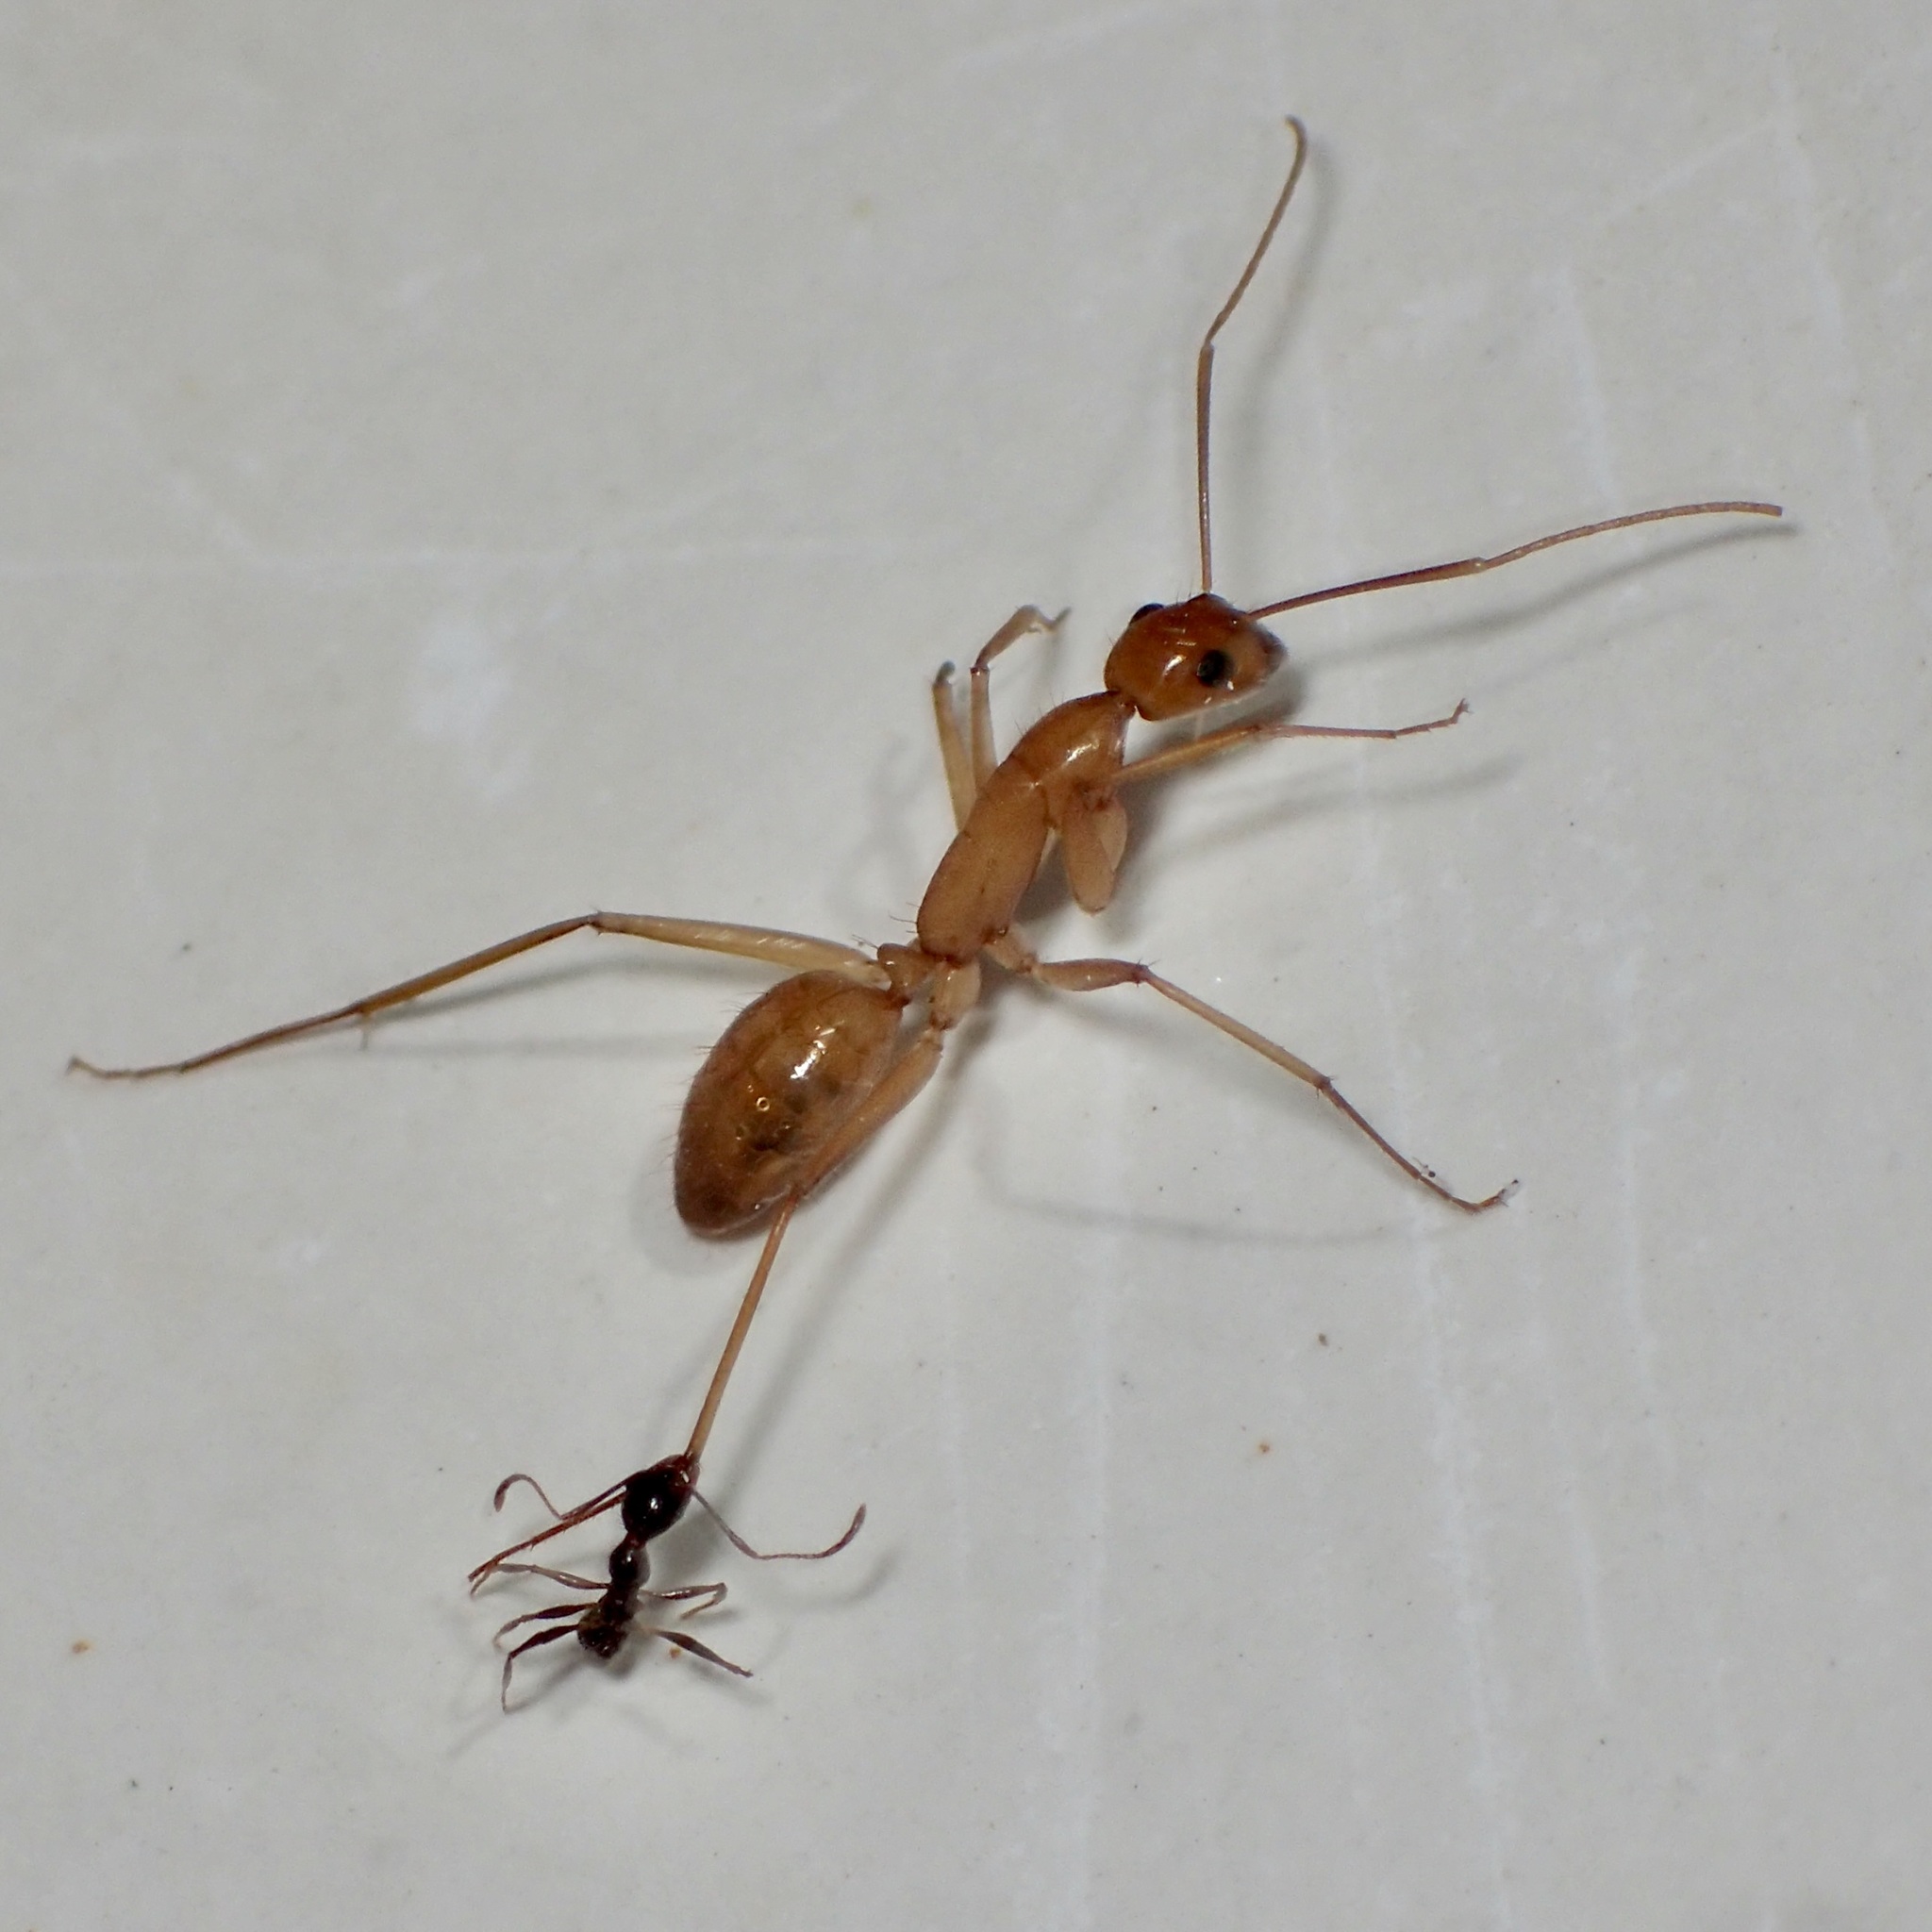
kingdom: Animalia
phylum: Arthropoda
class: Insecta
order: Hymenoptera
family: Formicidae
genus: Camponotus
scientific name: Camponotus
